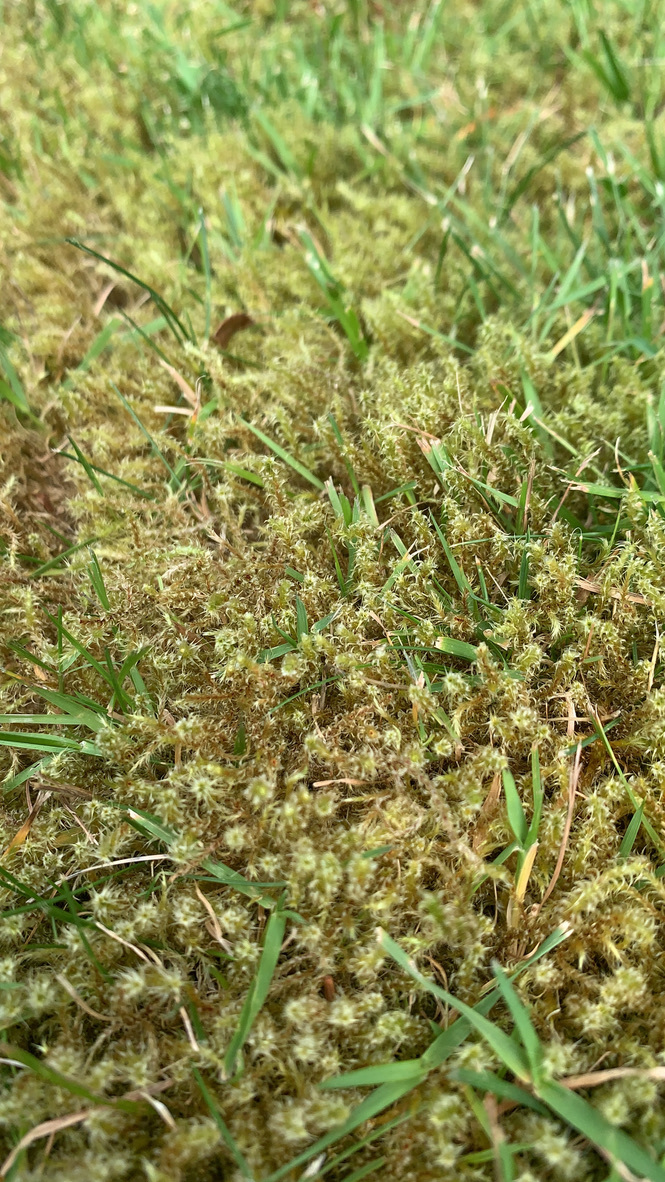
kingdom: Plantae
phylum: Bryophyta
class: Bryopsida
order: Hypnales
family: Hylocomiaceae
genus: Rhytidiadelphus
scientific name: Rhytidiadelphus squarrosus
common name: Springy turf-moss
